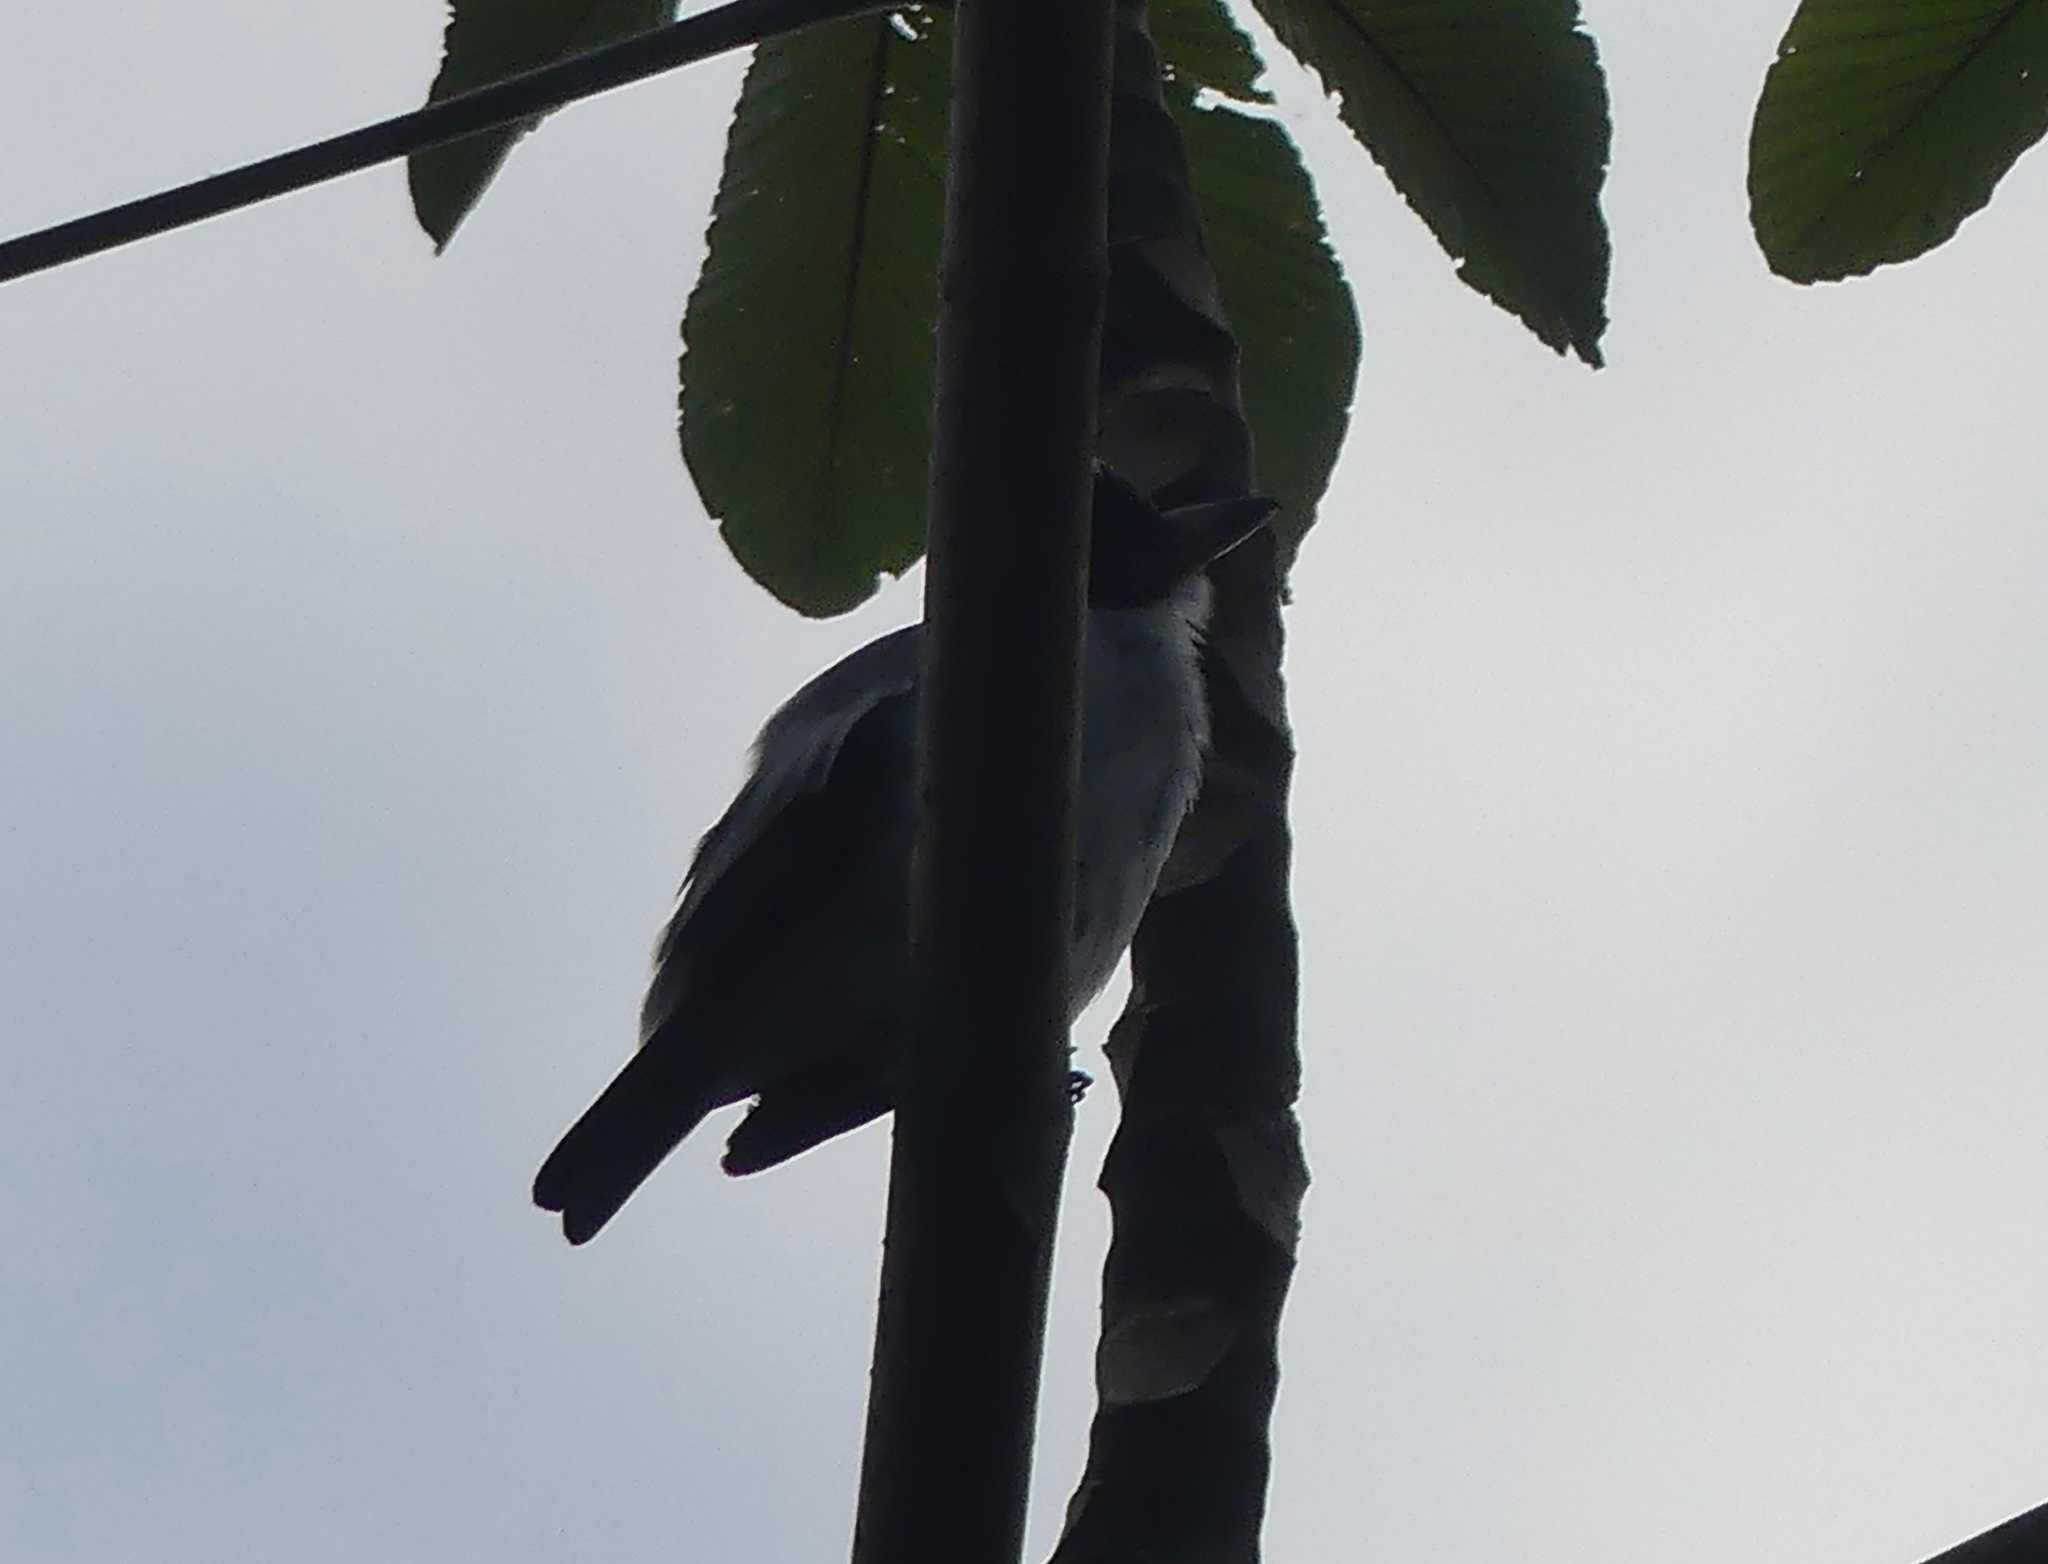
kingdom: Animalia
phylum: Chordata
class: Aves
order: Passeriformes
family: Cotingidae
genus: Tityra
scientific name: Tityra cayana
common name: Black-tailed tityra
